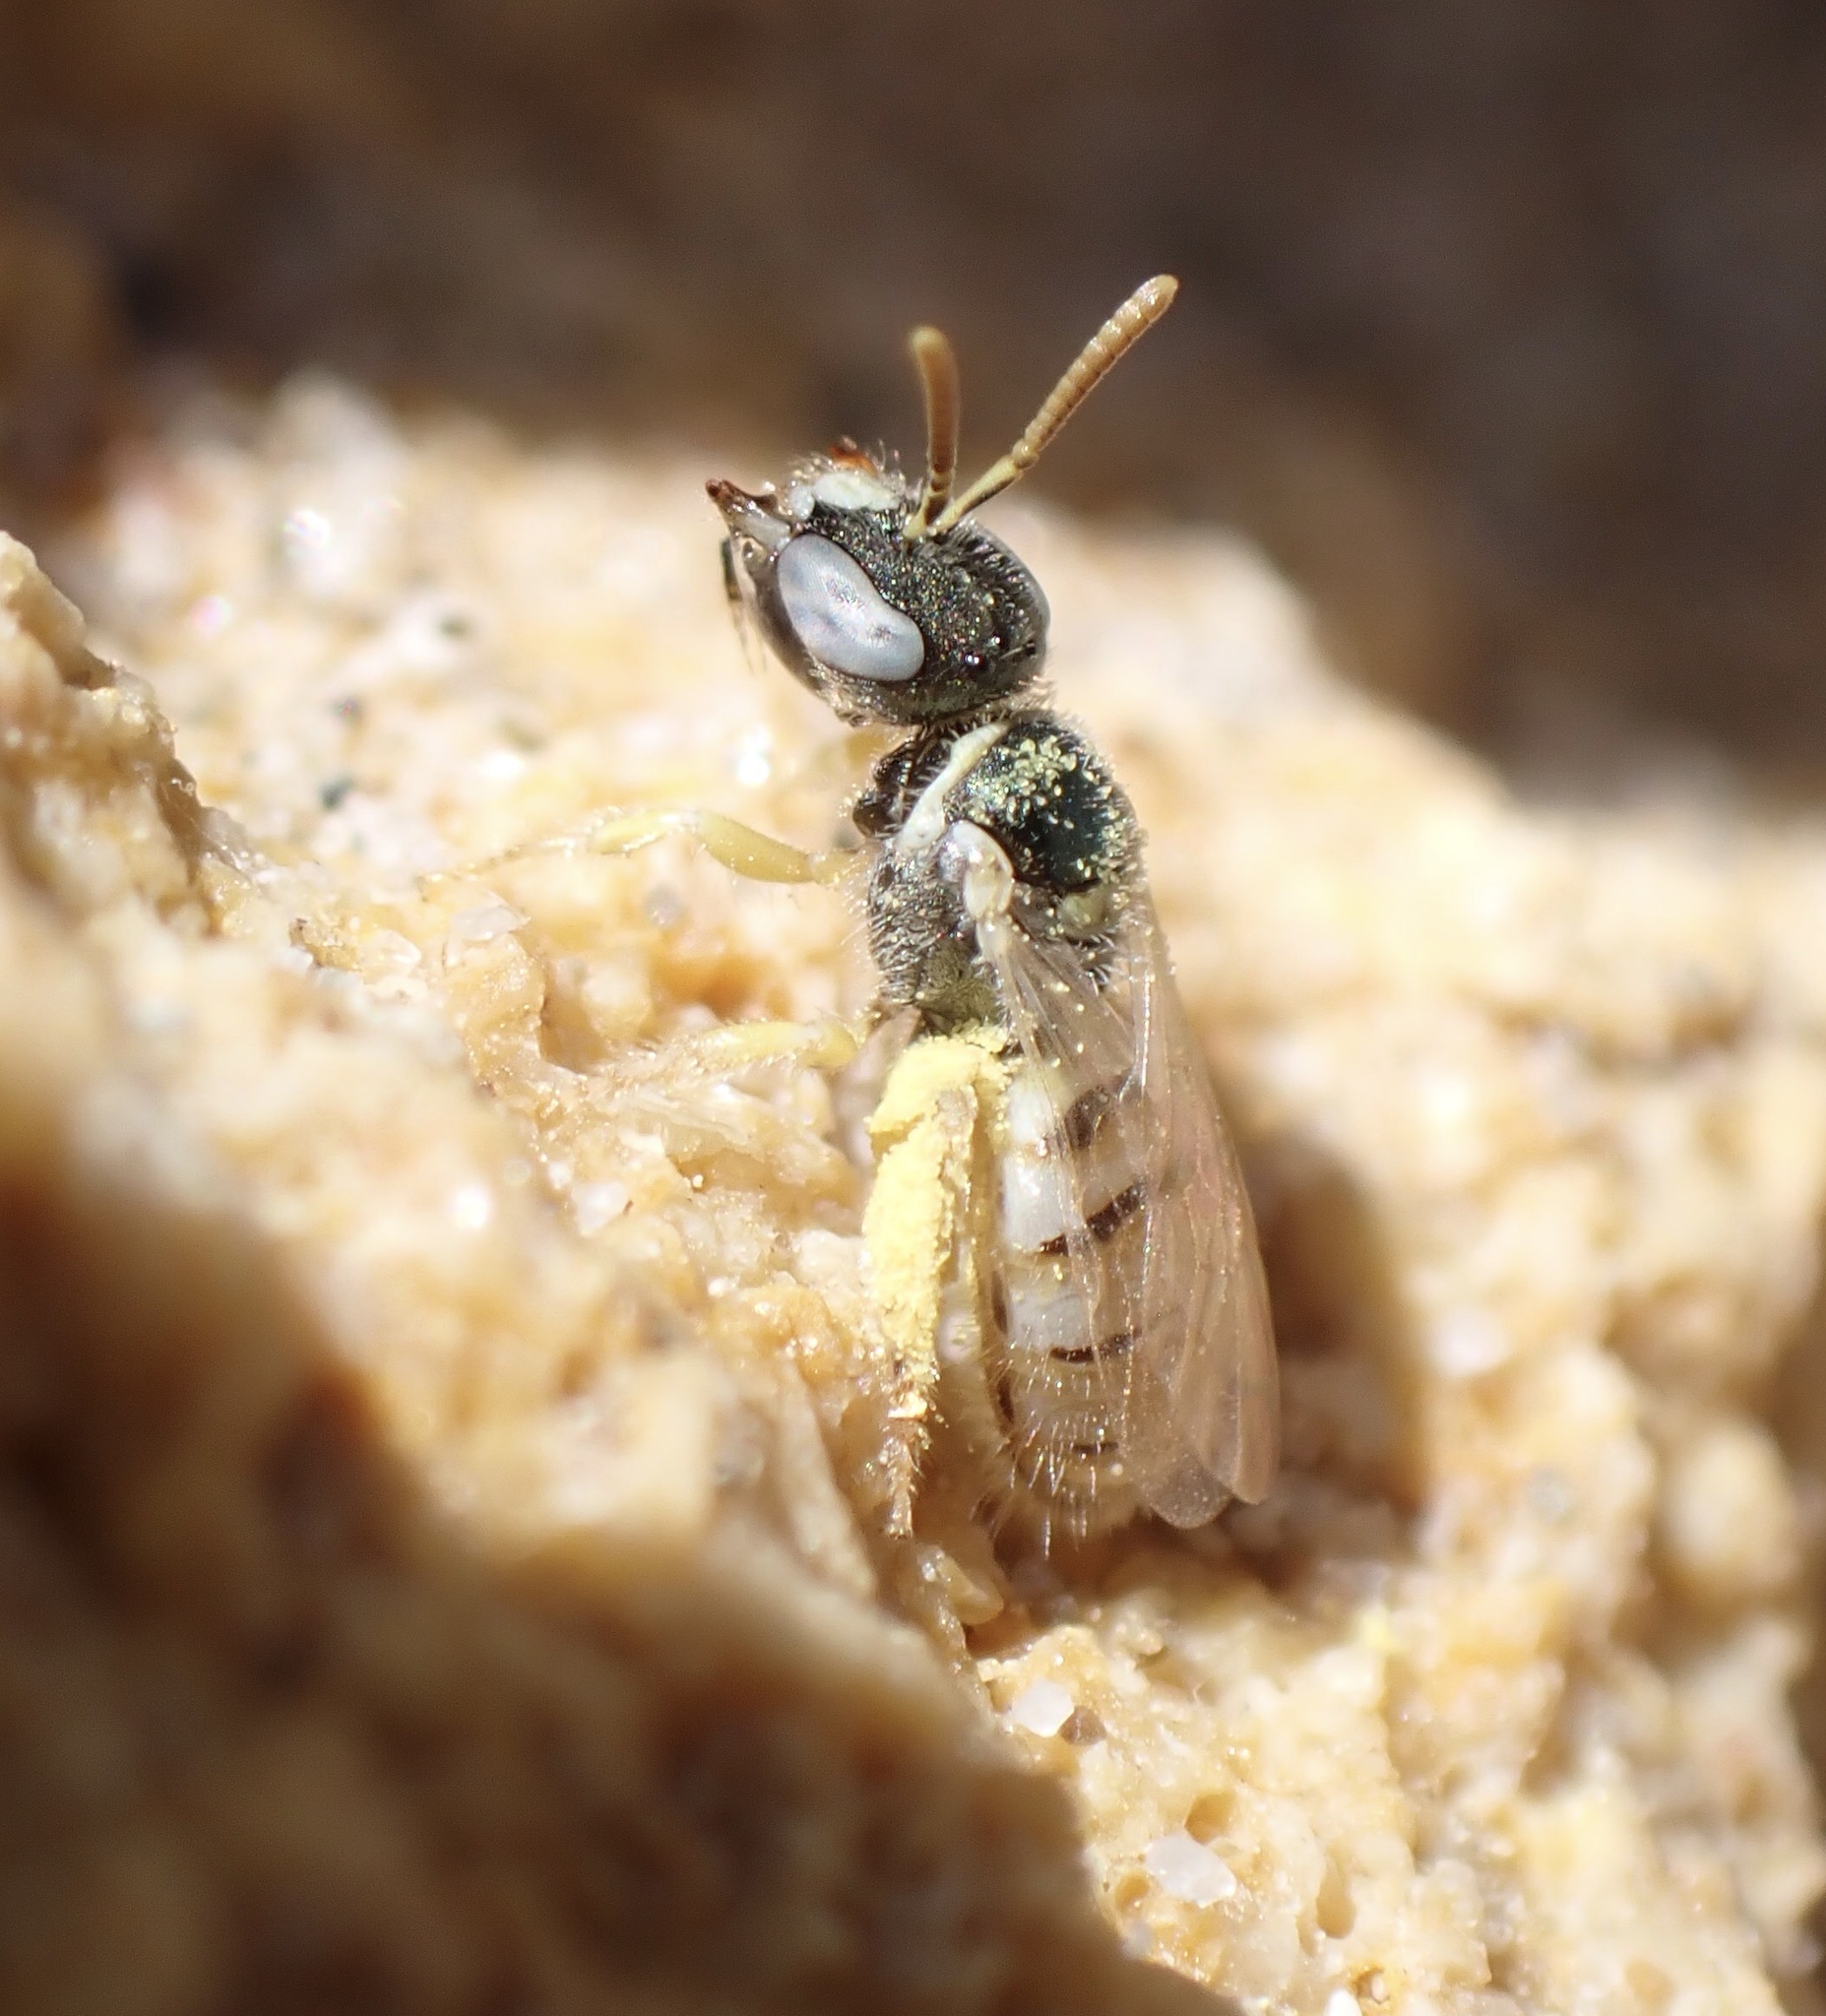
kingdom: Animalia
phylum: Arthropoda
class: Insecta
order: Hymenoptera
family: Halictidae
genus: Nomioides
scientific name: Nomioides minutissimus
